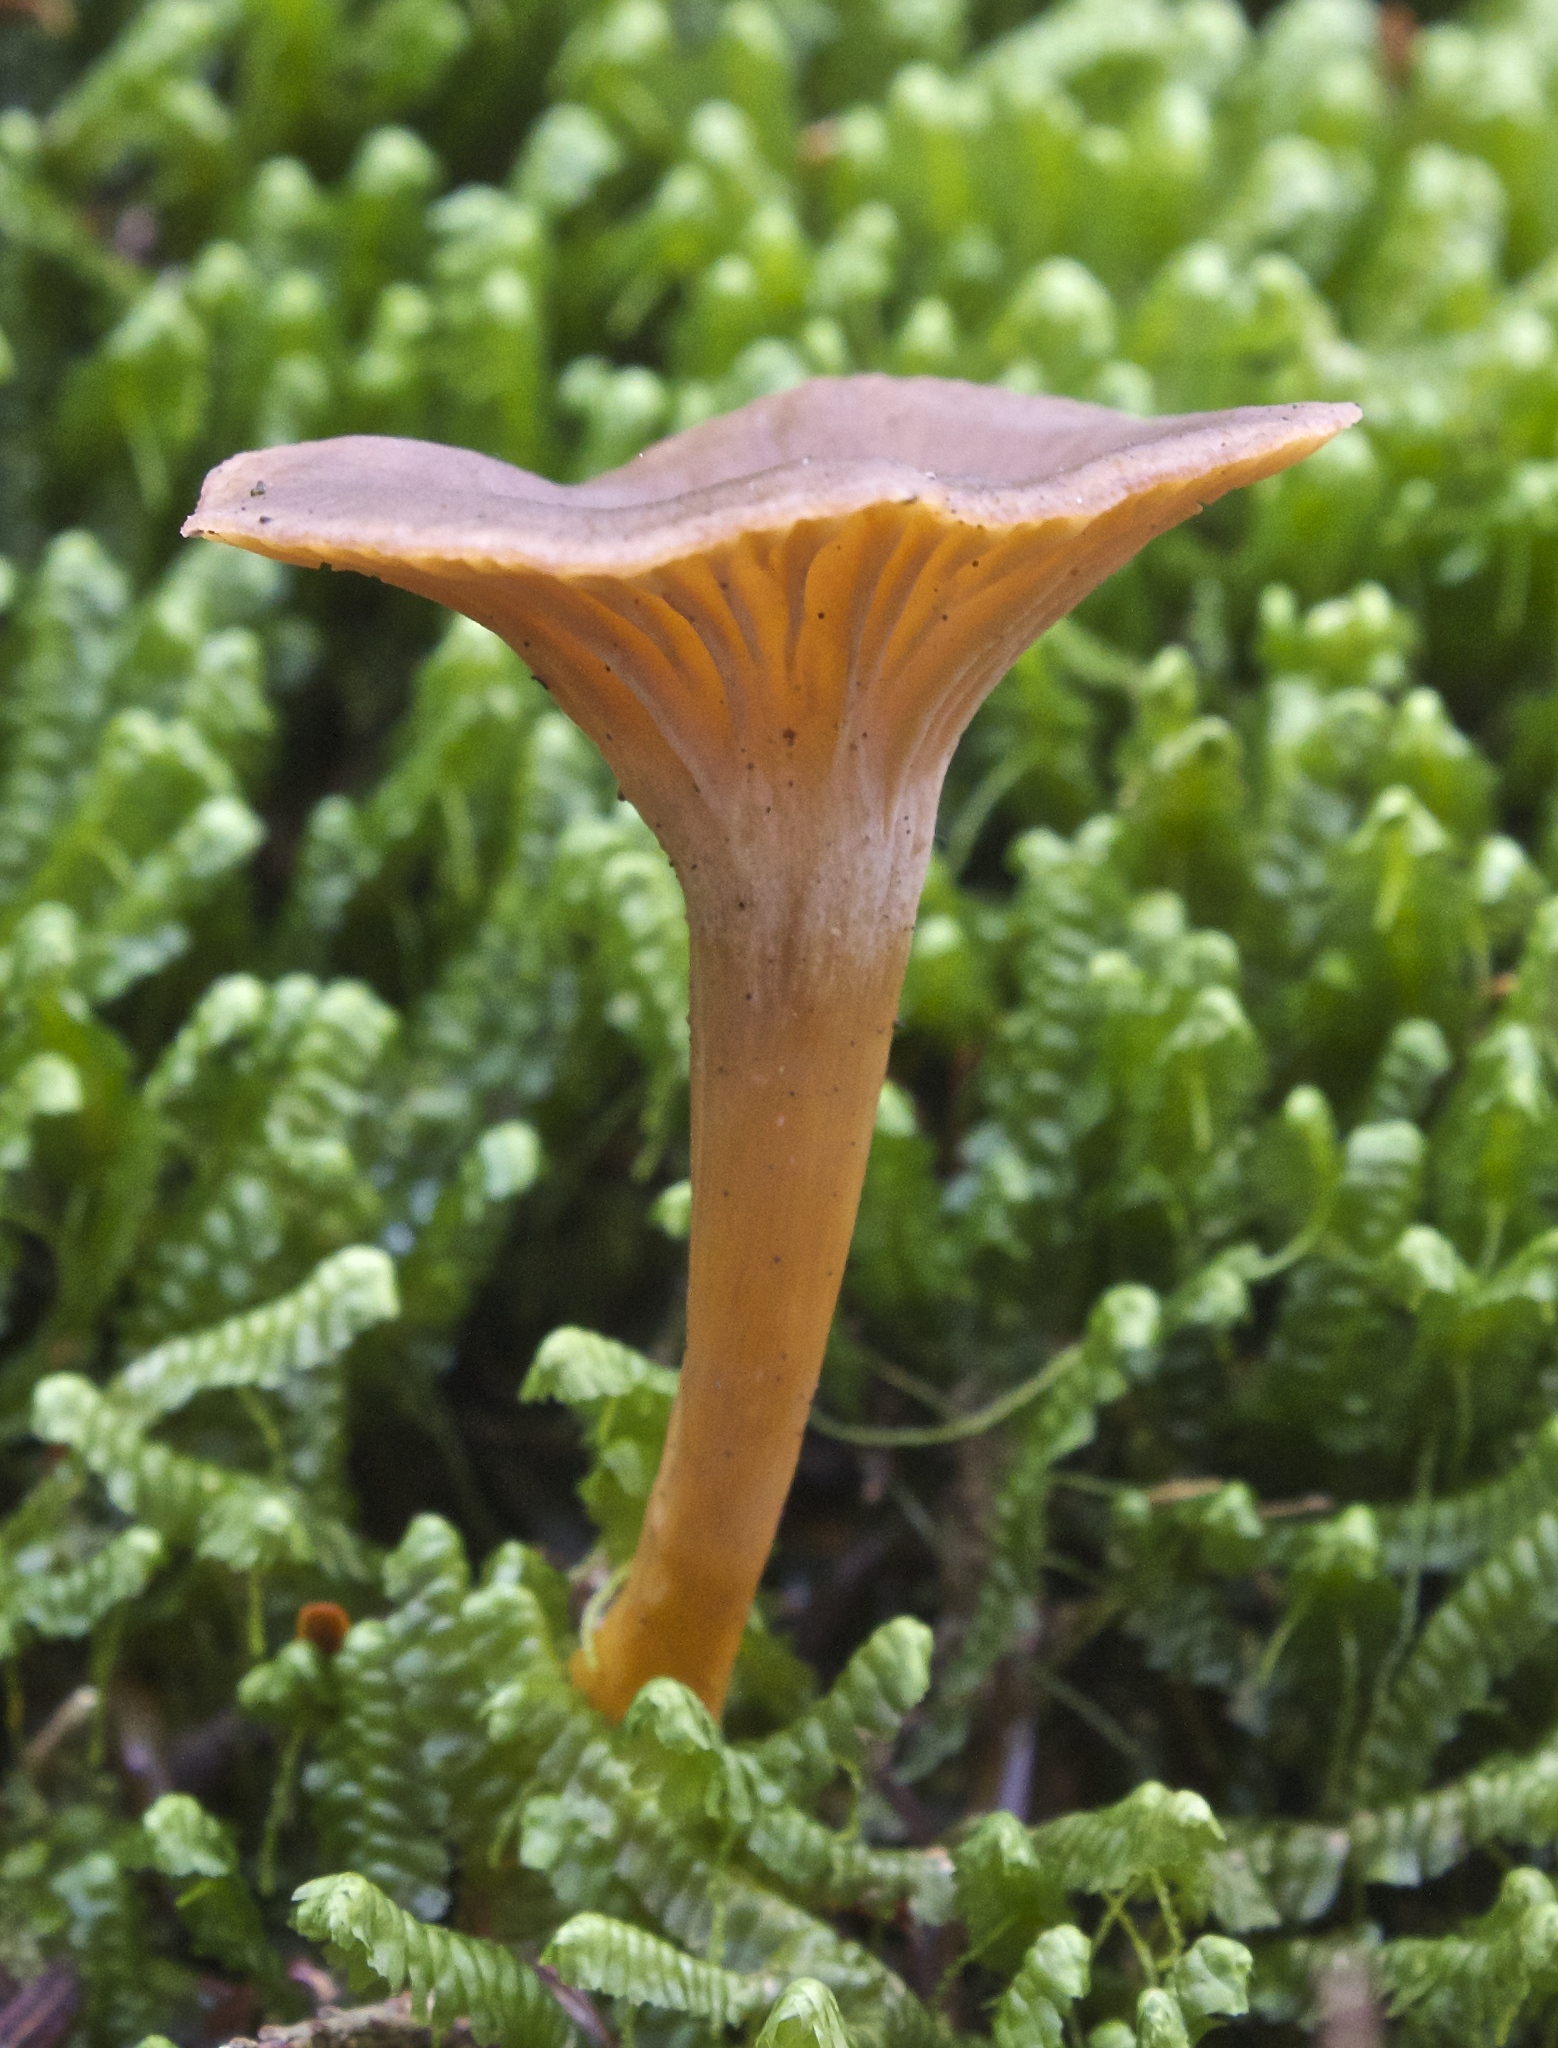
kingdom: Fungi
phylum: Basidiomycota
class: Agaricomycetes
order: Cantharellales
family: Hydnaceae
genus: Craterellus
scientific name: Craterellus tubaeformis
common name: Yellowfoot
